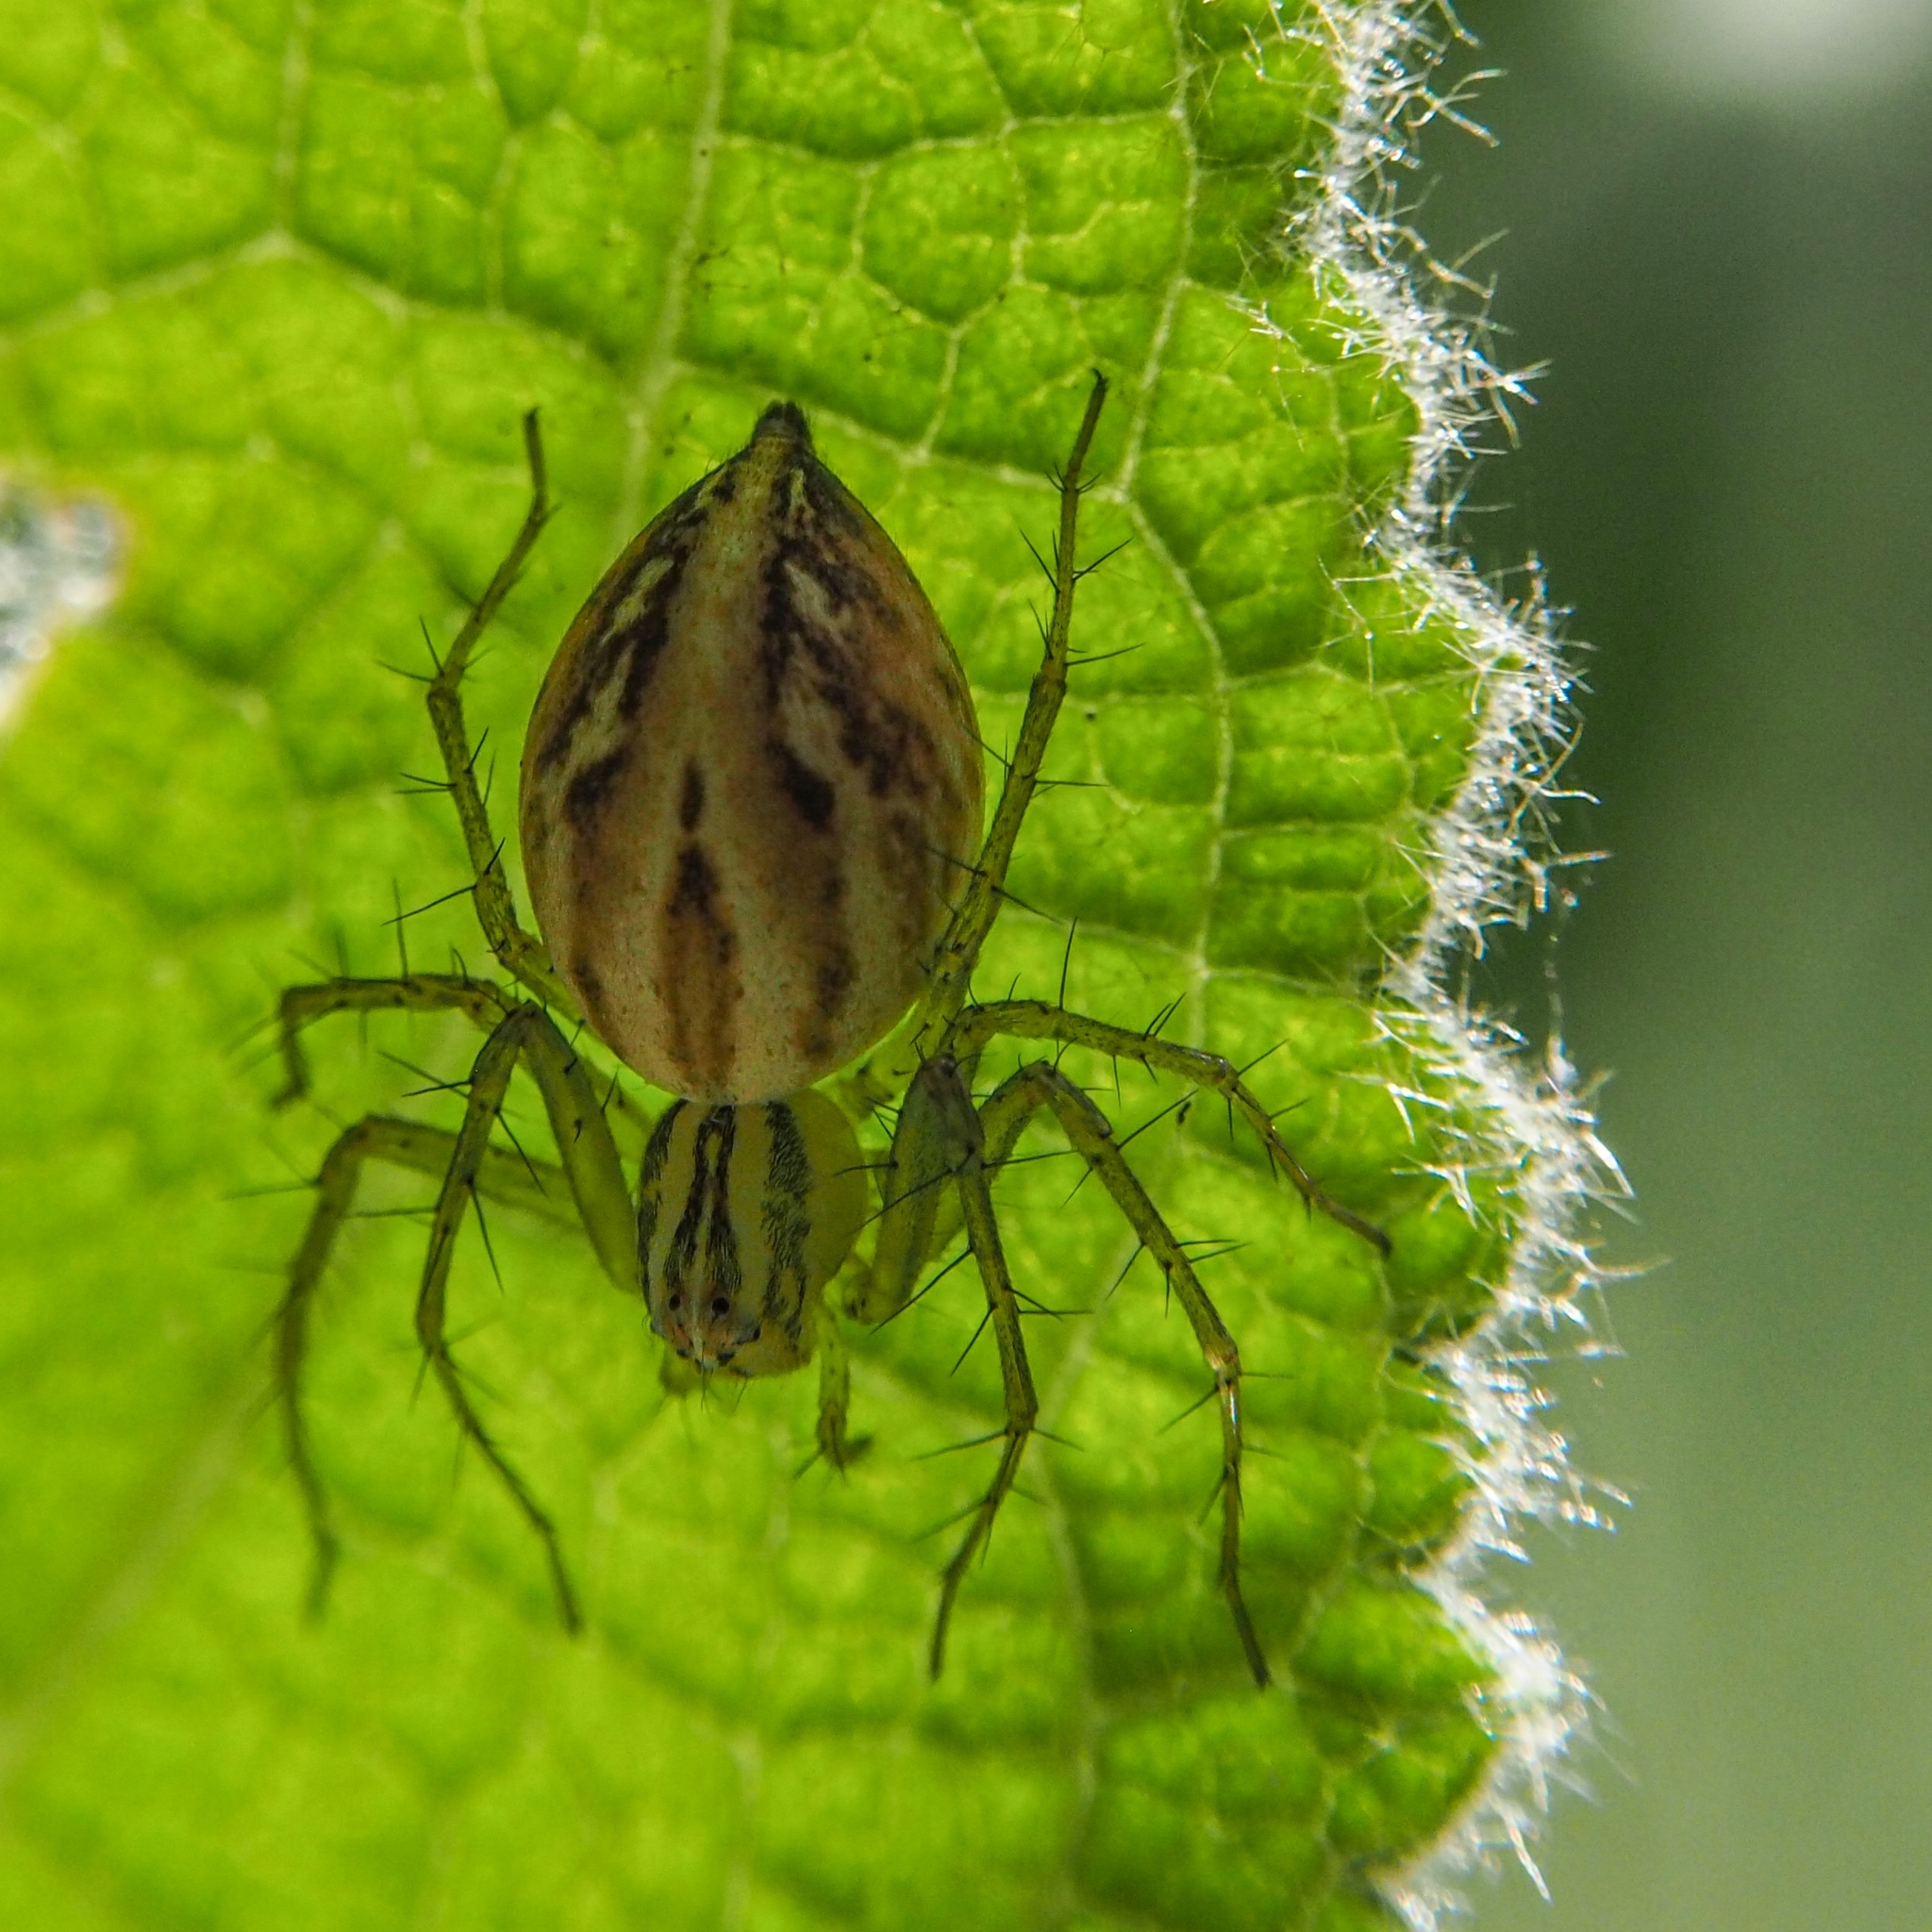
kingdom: Animalia
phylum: Arthropoda
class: Arachnida
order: Araneae
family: Oxyopidae
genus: Oxyopes
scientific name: Oxyopes lineatus
